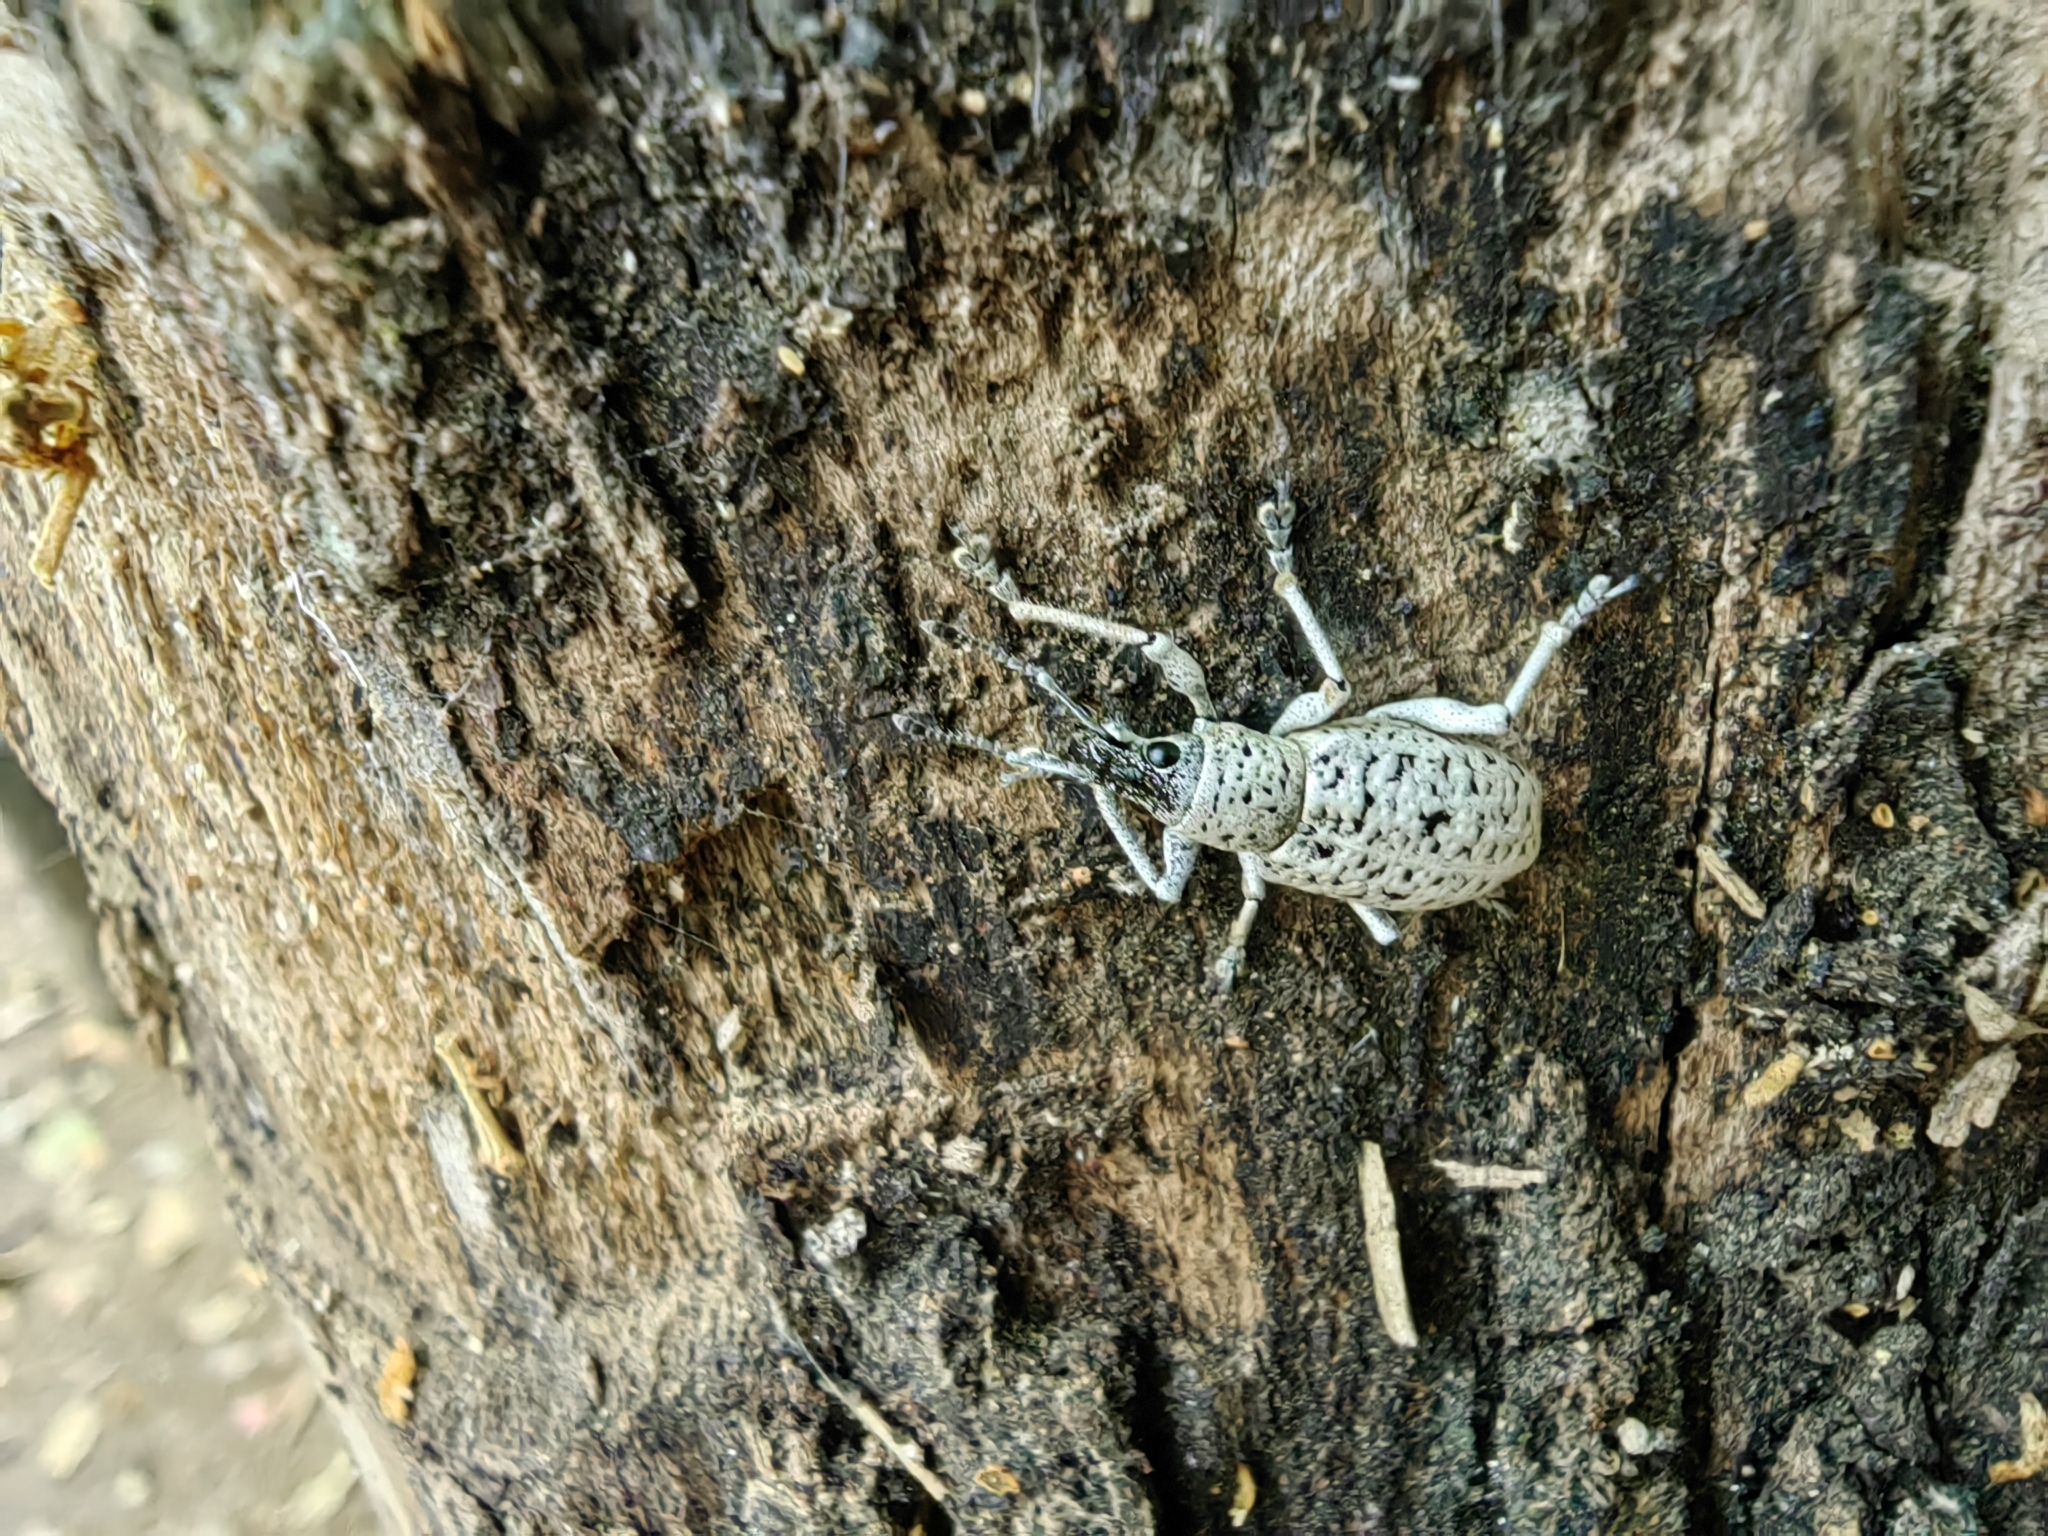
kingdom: Animalia
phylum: Arthropoda
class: Insecta
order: Coleoptera
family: Curculionidae
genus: Exophthalmus
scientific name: Exophthalmus scalptus
